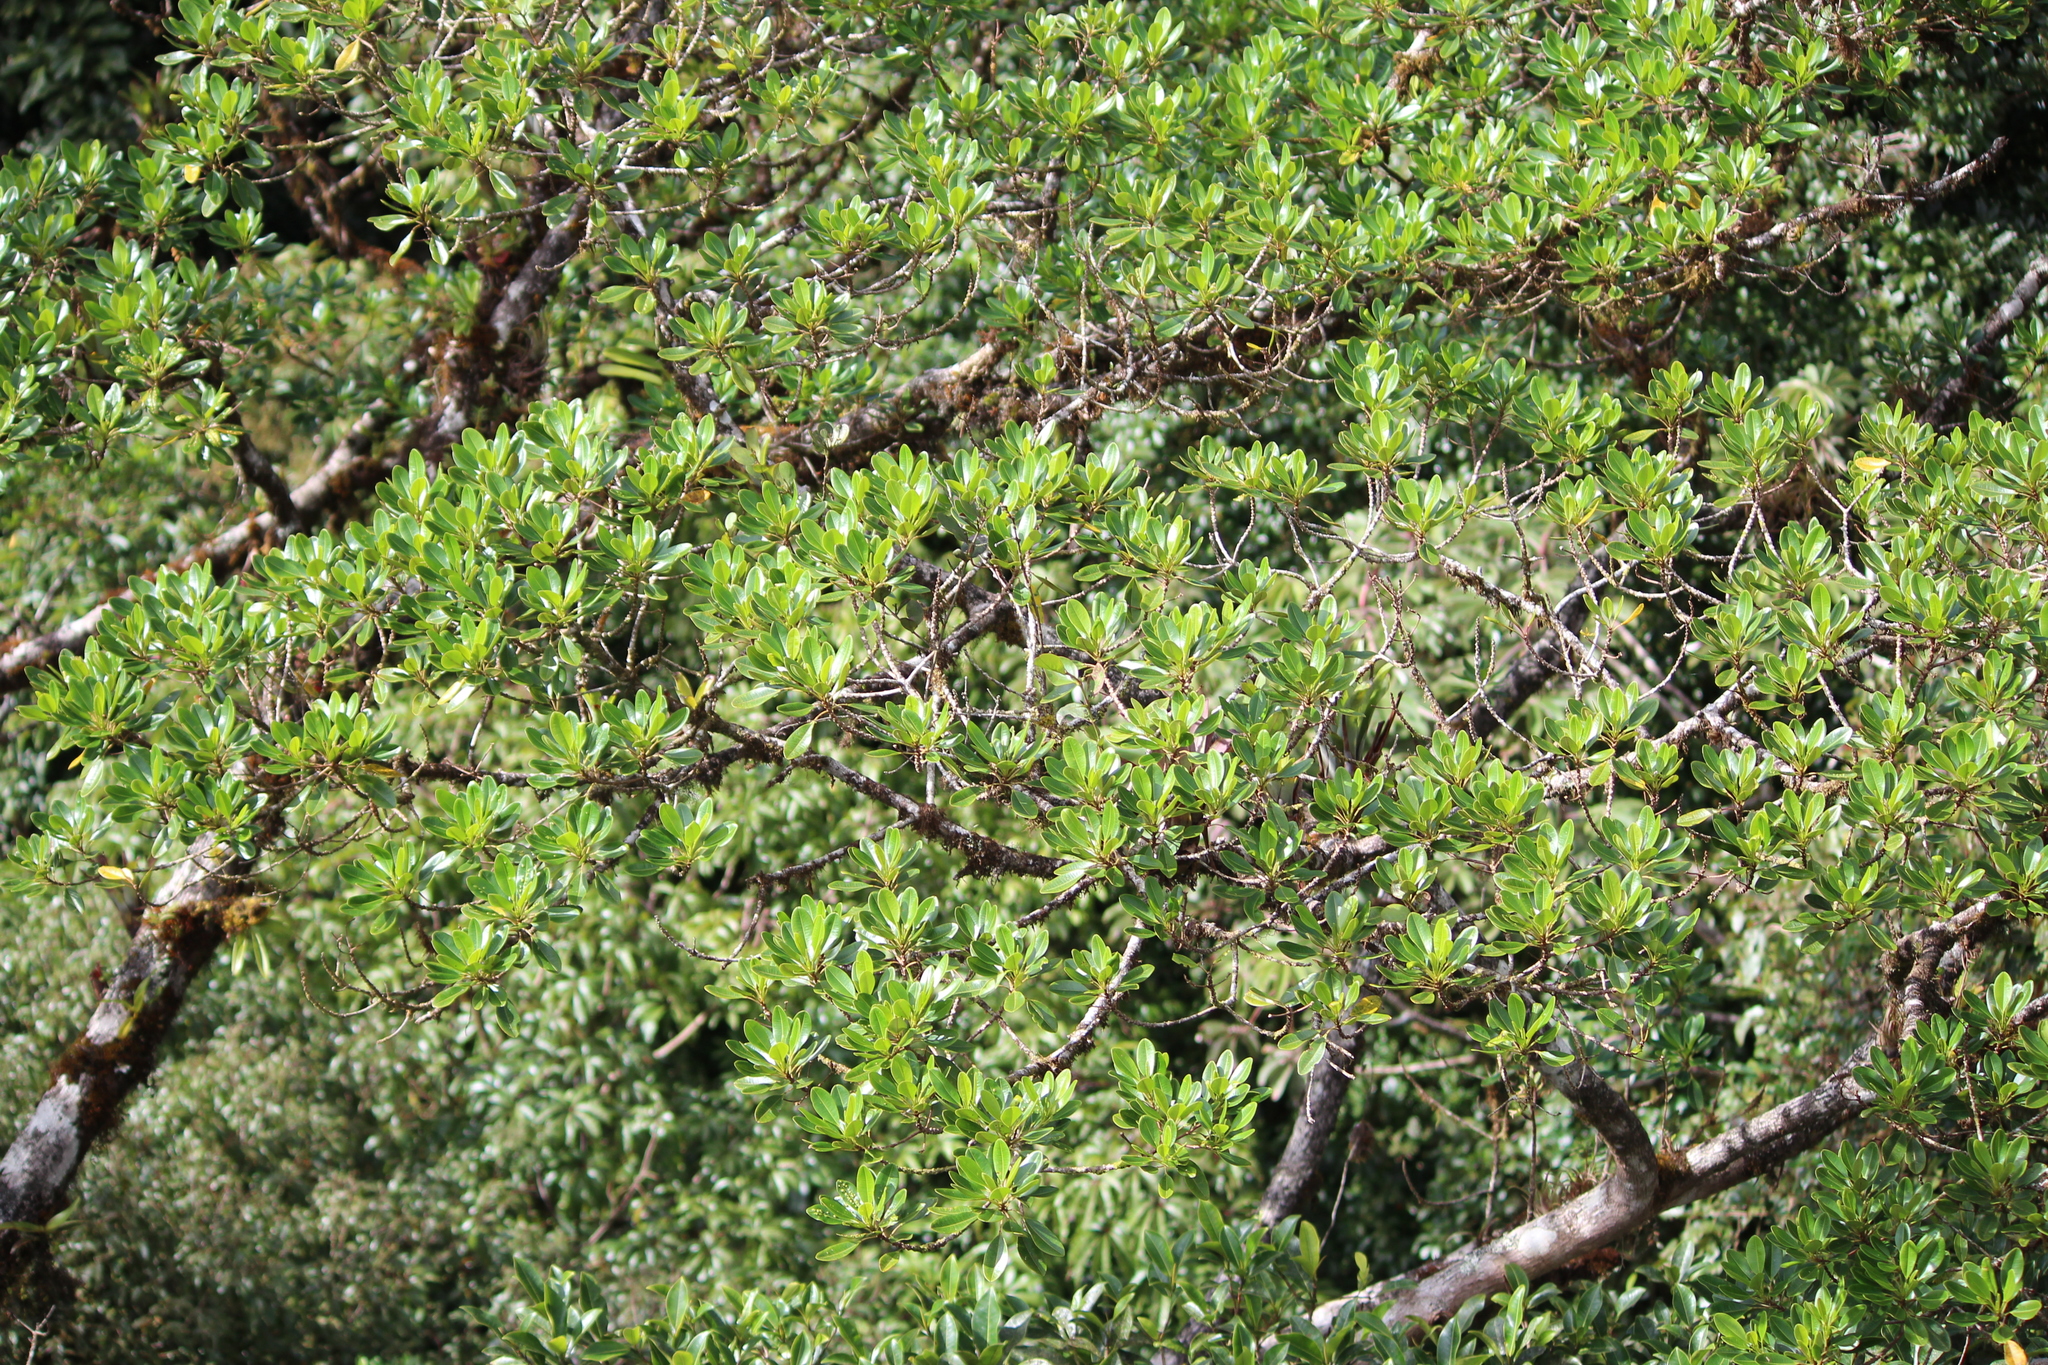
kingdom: Plantae
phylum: Tracheophyta
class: Magnoliopsida
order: Malpighiales
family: Euphorbiaceae
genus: Sapium
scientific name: Sapium rigidifolium
